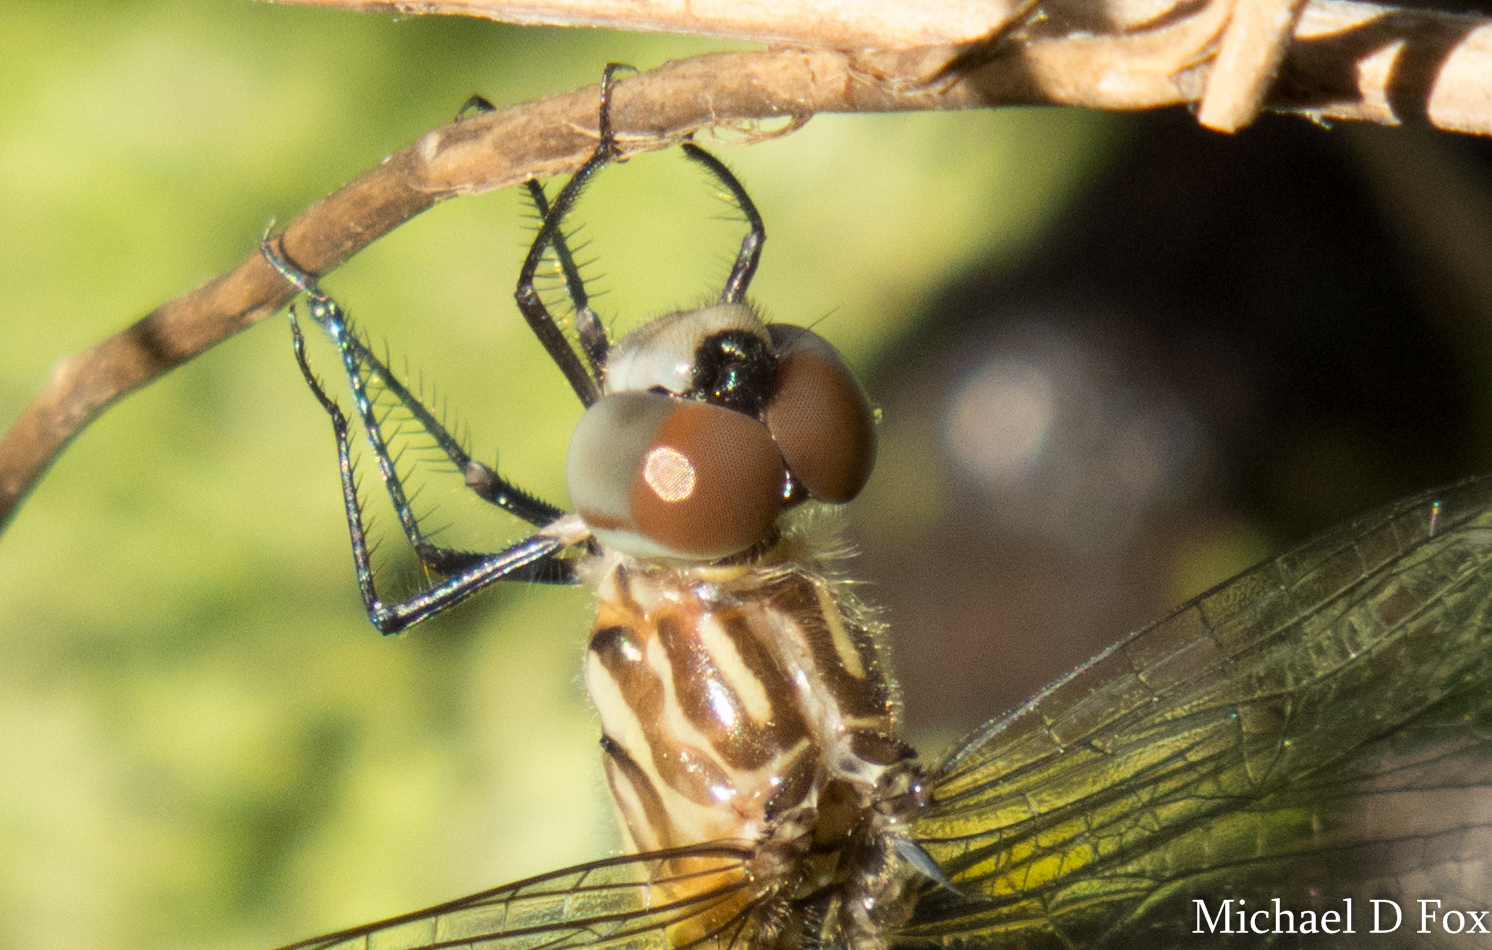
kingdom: Animalia
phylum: Arthropoda
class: Insecta
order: Odonata
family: Libellulidae
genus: Pachydiplax
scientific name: Pachydiplax longipennis
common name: Blue dasher
